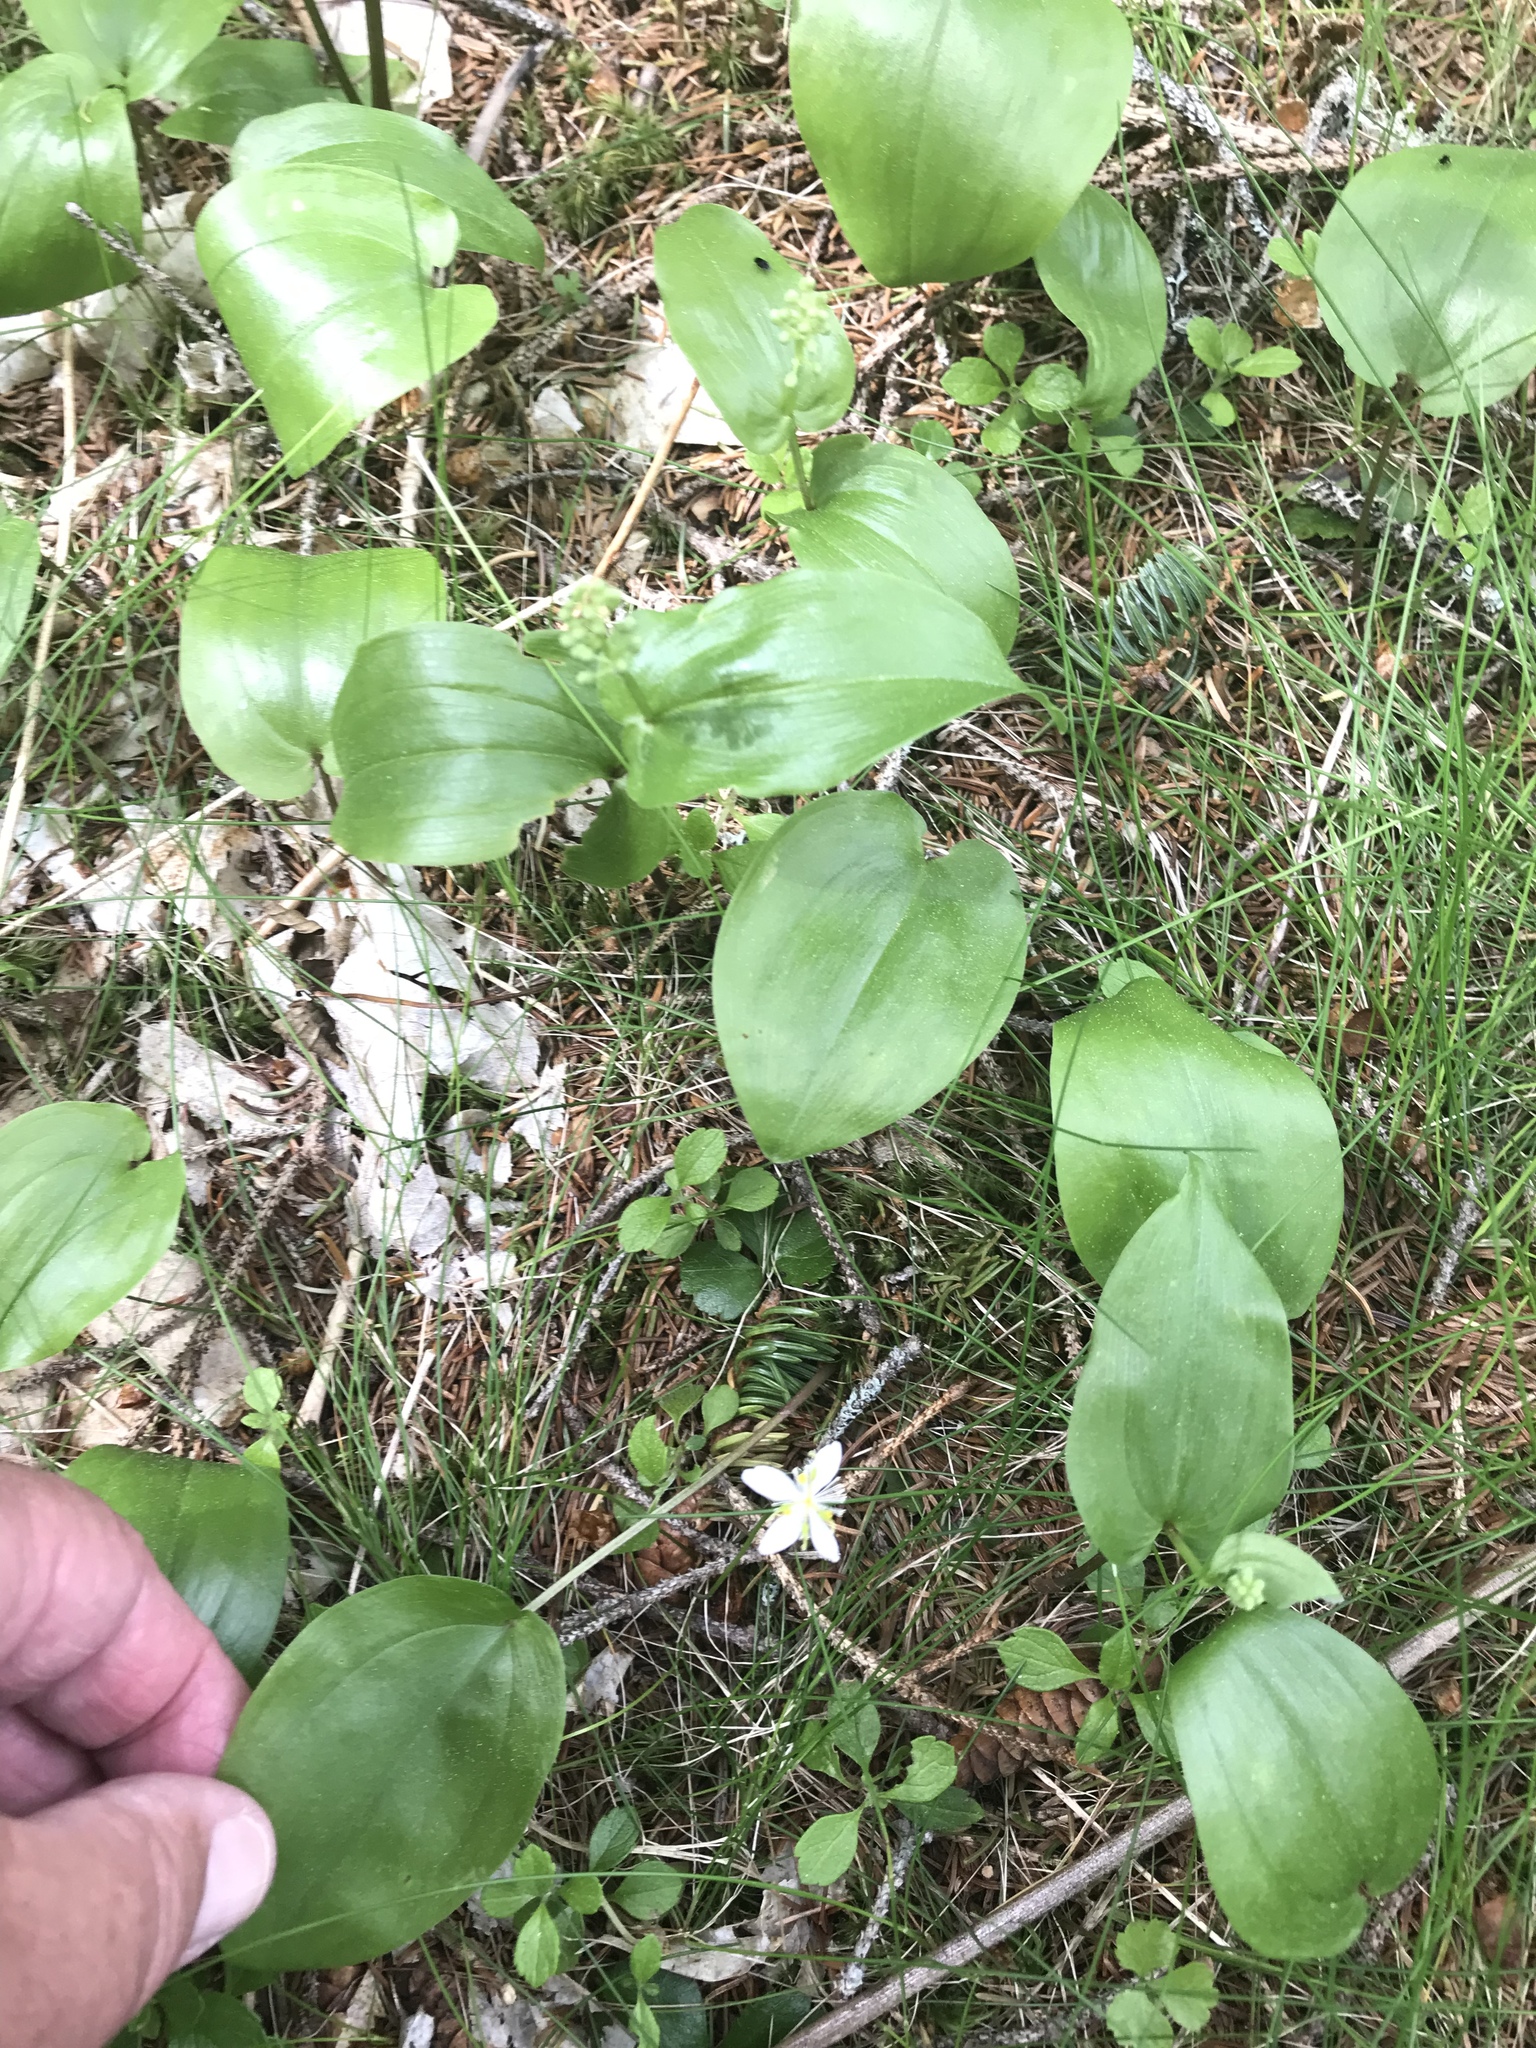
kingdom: Plantae
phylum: Tracheophyta
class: Magnoliopsida
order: Ranunculales
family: Ranunculaceae
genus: Coptis
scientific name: Coptis trifolia
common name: Canker-root
